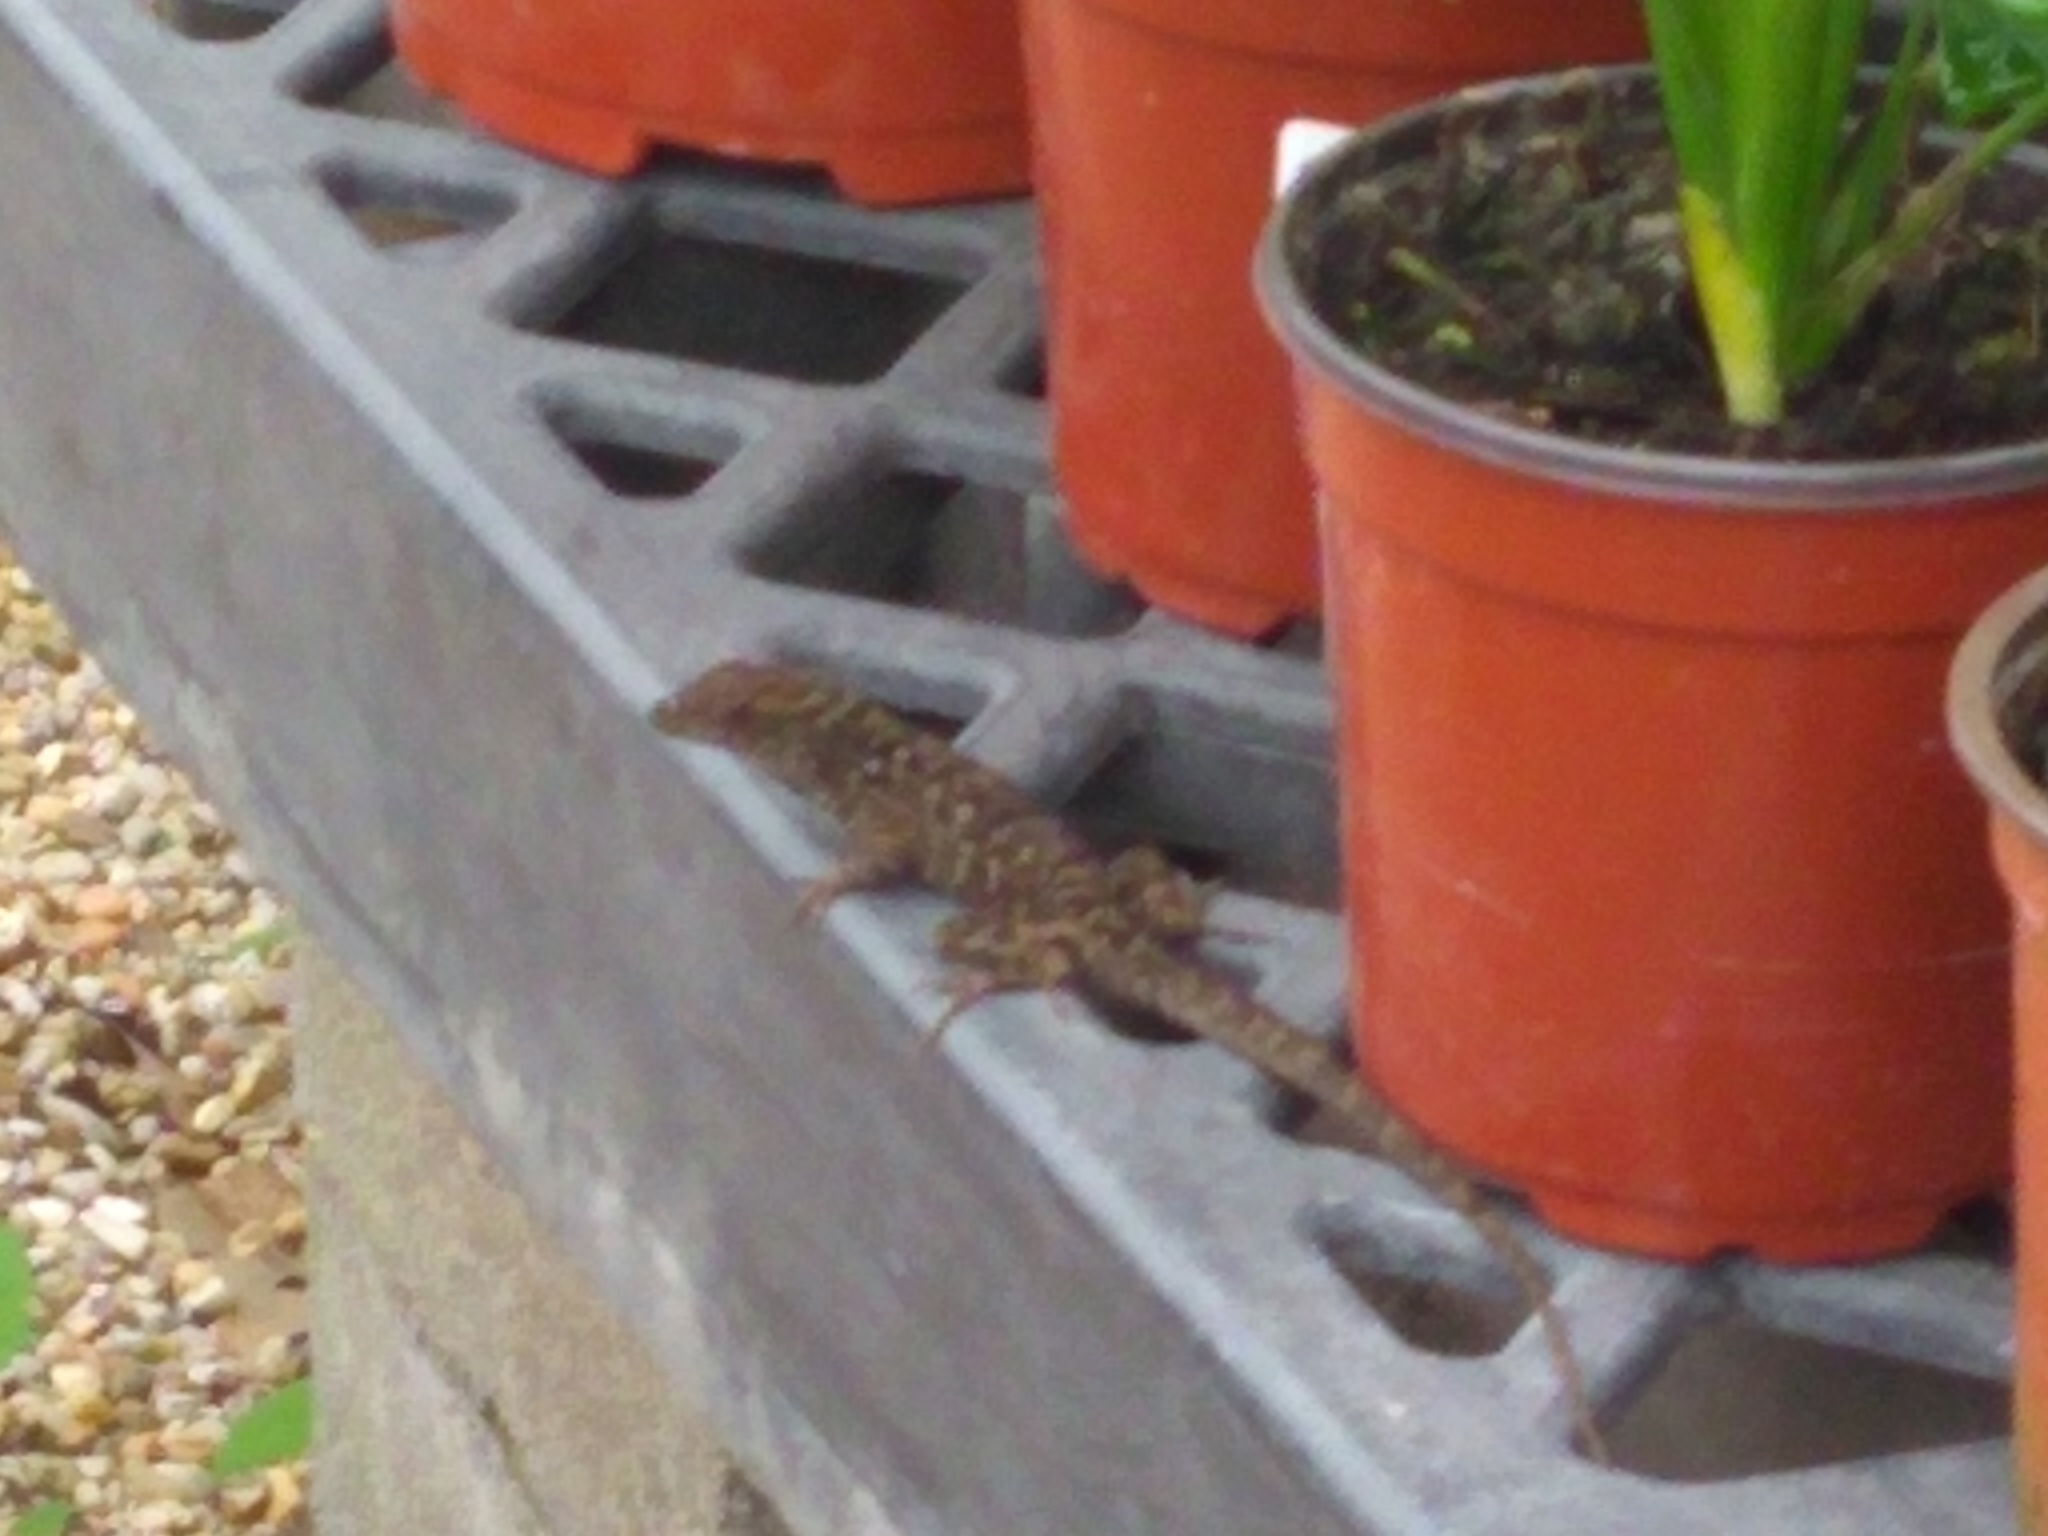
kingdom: Animalia
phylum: Chordata
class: Squamata
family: Dactyloidae
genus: Anolis
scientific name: Anolis sagrei
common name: Brown anole
